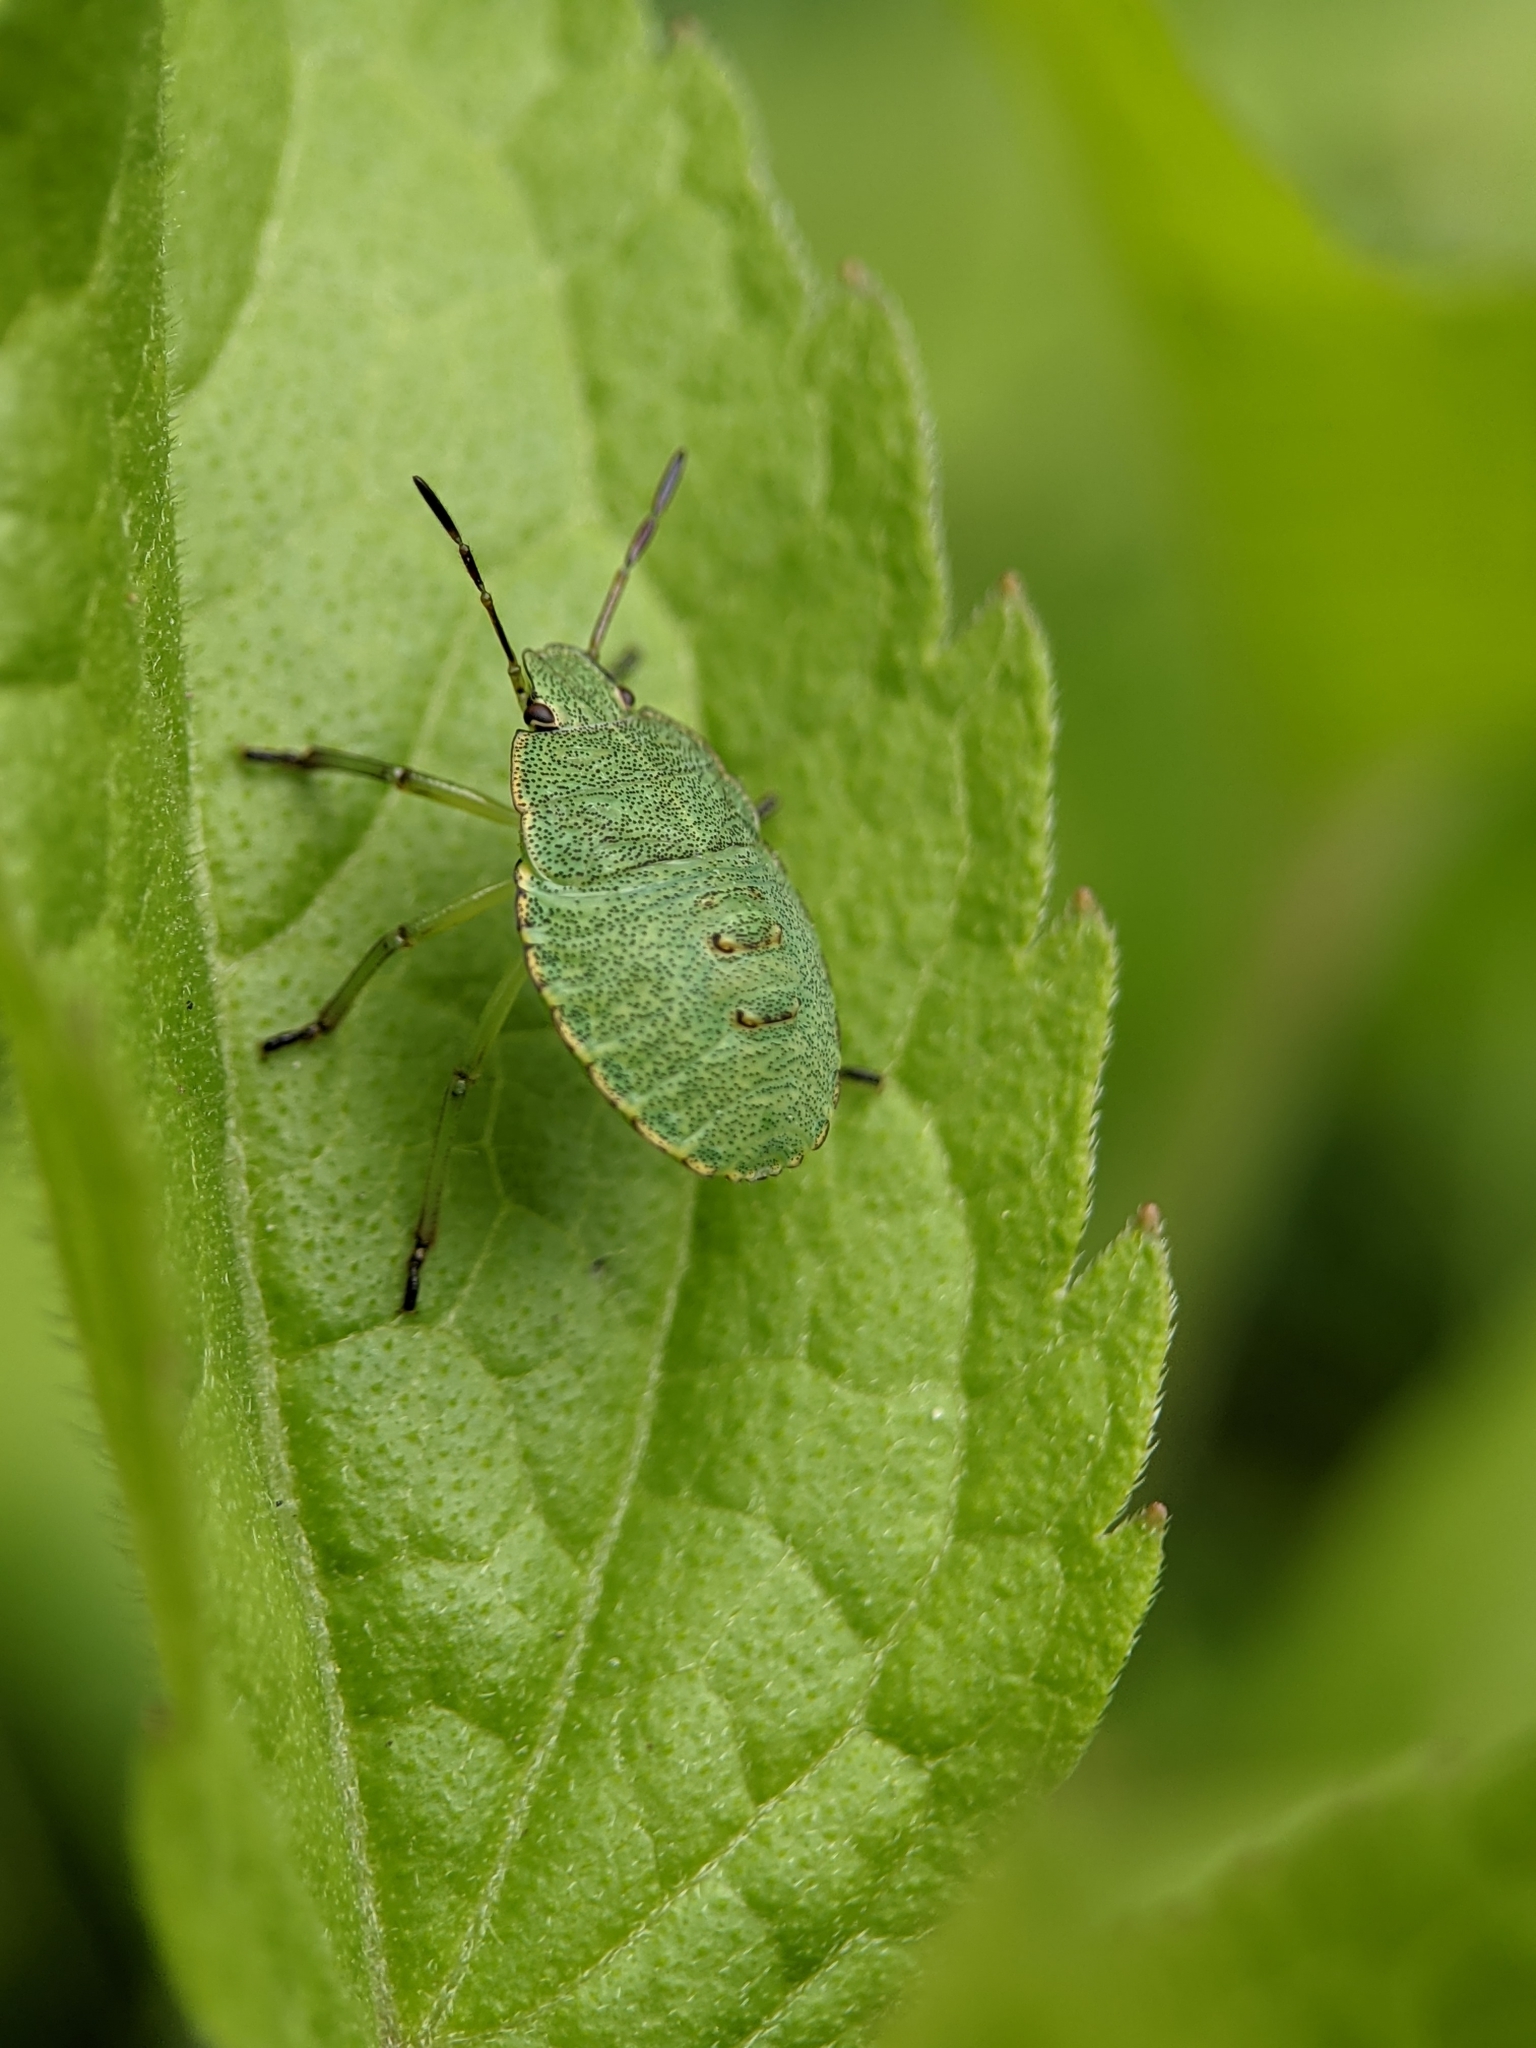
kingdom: Animalia
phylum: Arthropoda
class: Insecta
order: Hemiptera
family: Pentatomidae
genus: Palomena
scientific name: Palomena prasina
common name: Green shieldbug
